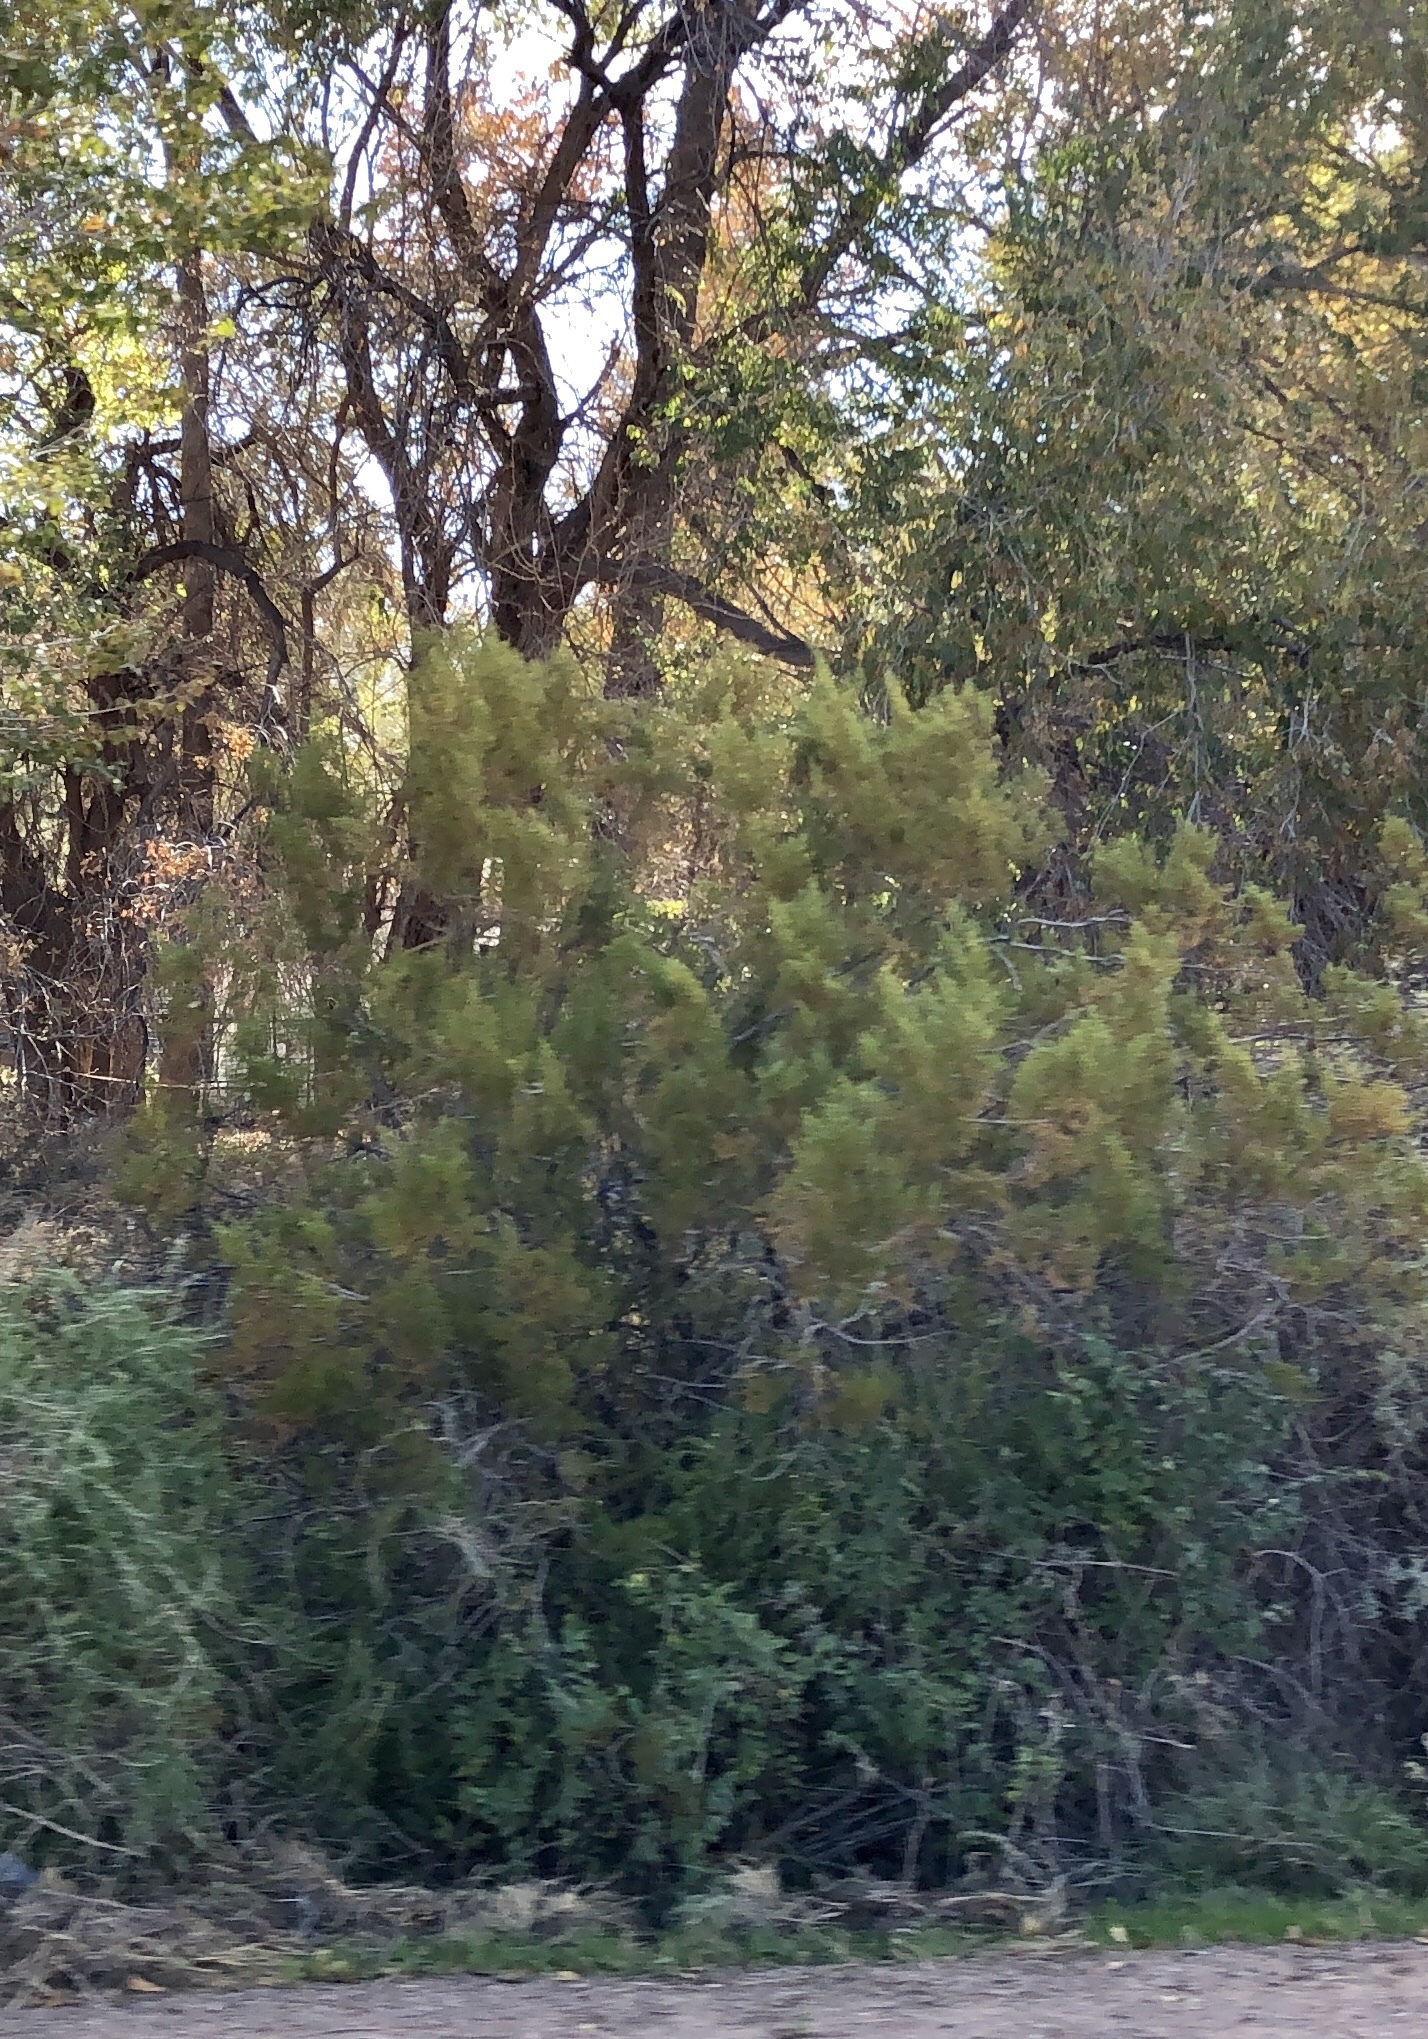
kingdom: Plantae
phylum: Tracheophyta
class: Magnoliopsida
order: Zygophyllales
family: Zygophyllaceae
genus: Larrea
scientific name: Larrea tridentata
